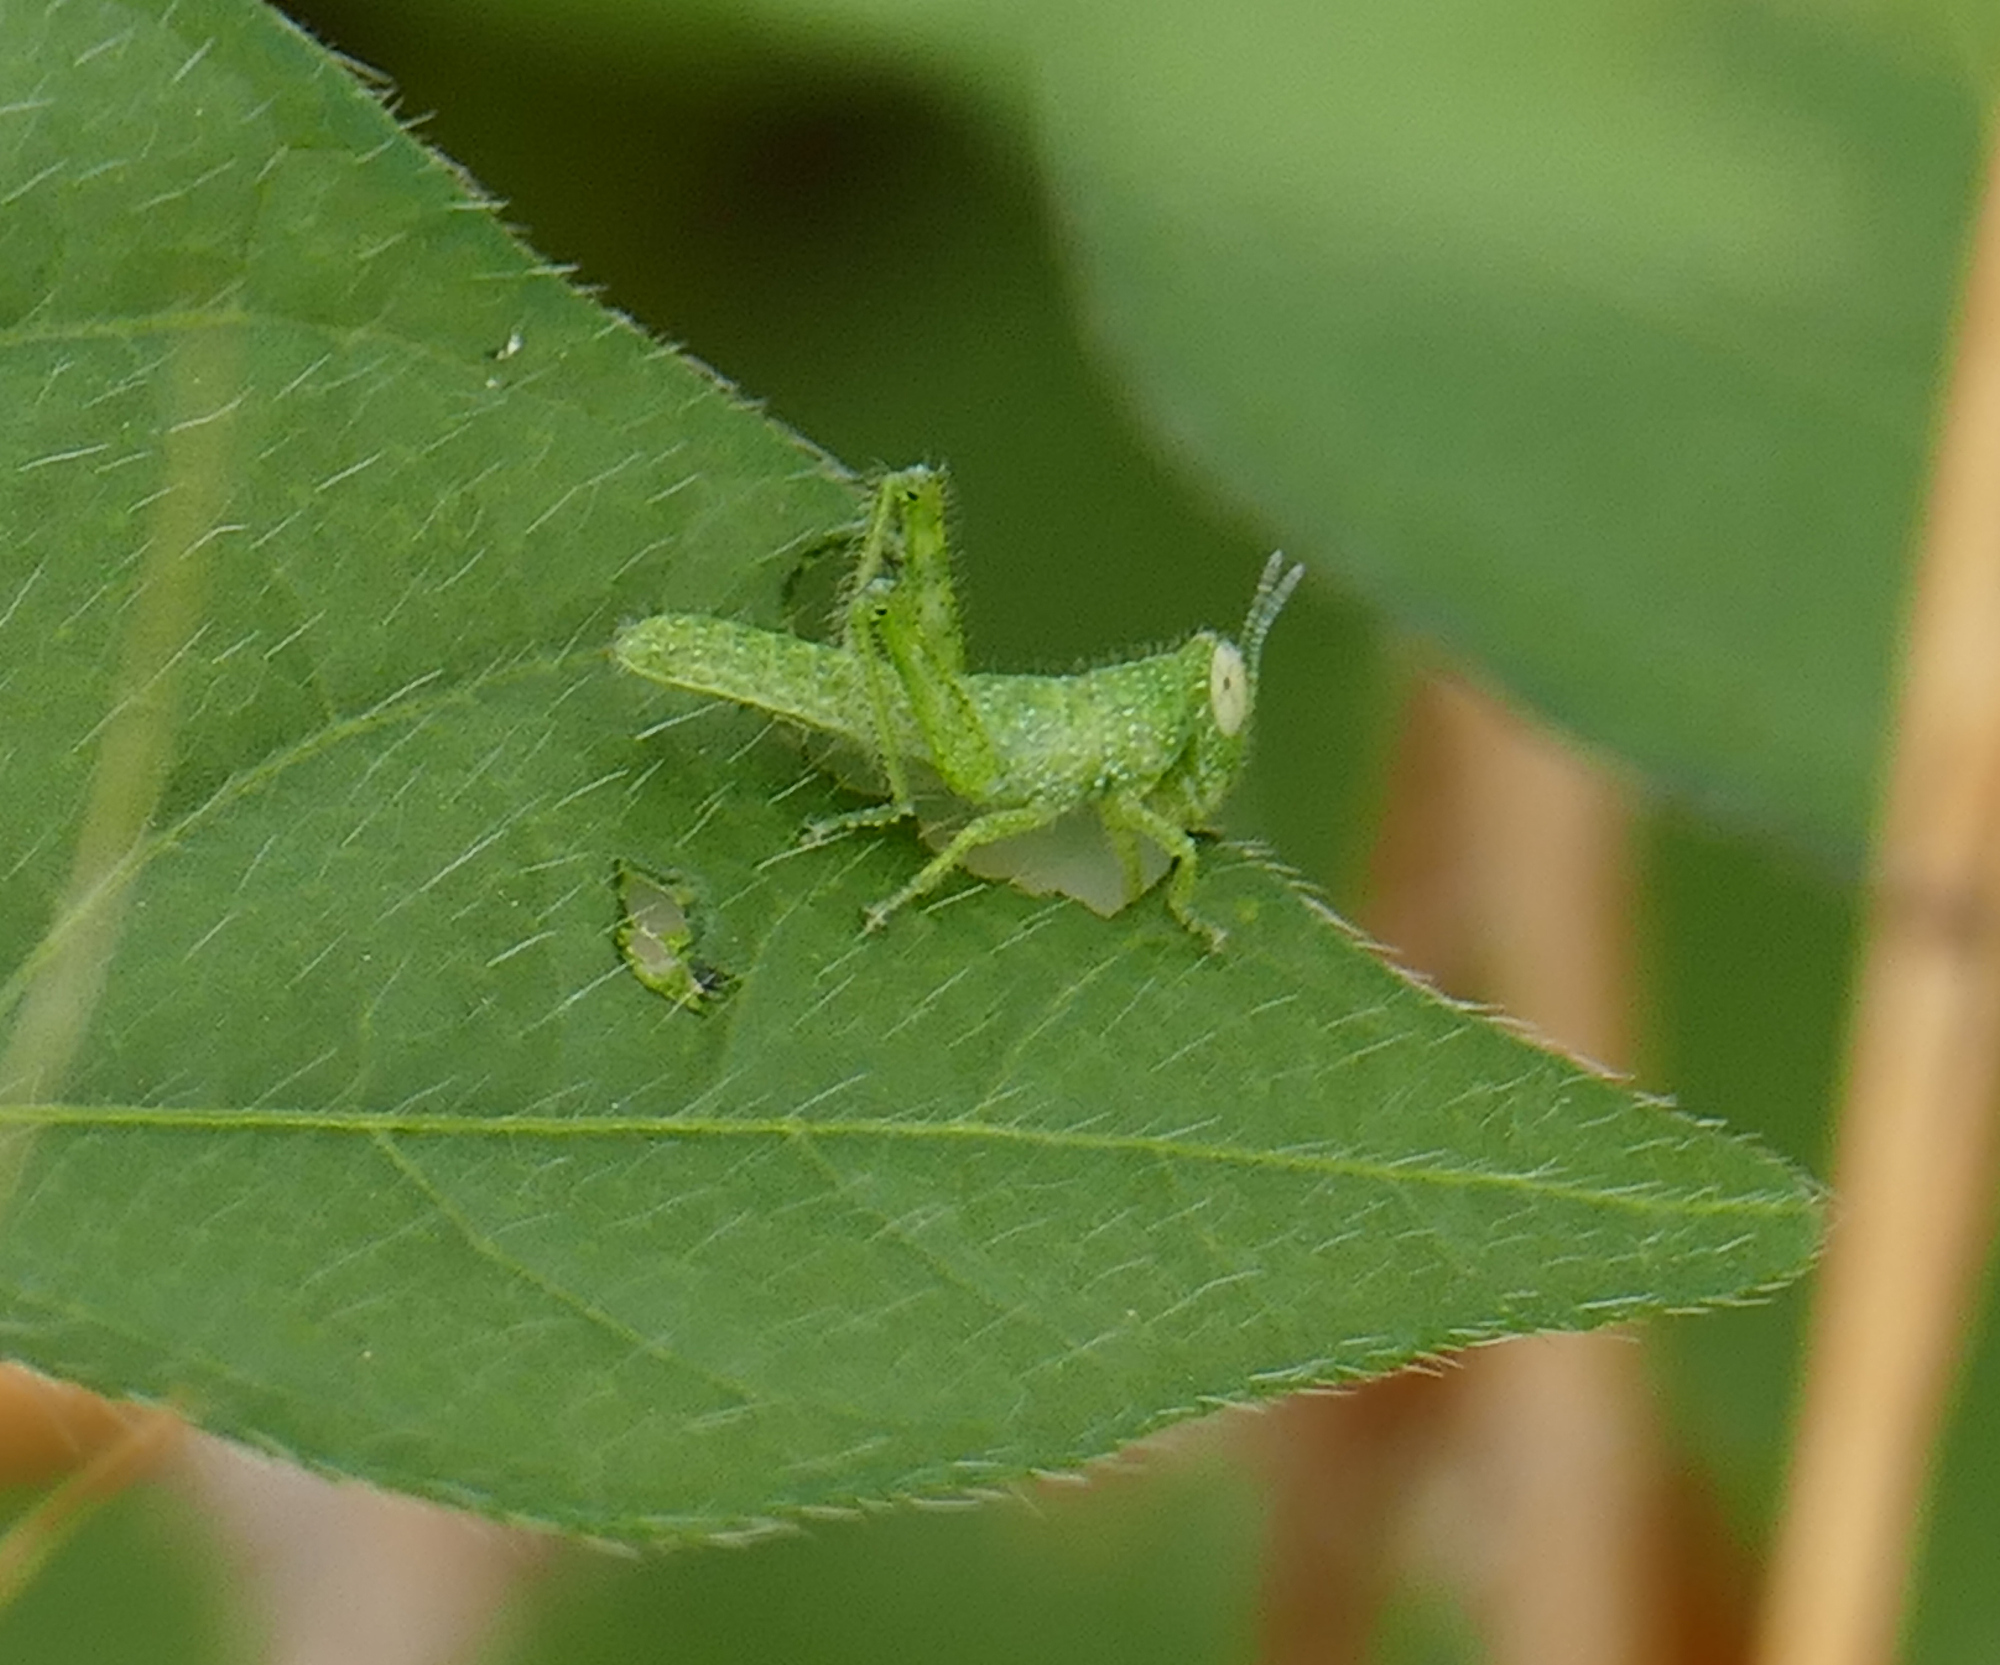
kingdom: Animalia
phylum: Arthropoda
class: Insecta
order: Orthoptera
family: Acrididae
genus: Schistocerca
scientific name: Schistocerca nitens
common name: Vagrant grasshopper
